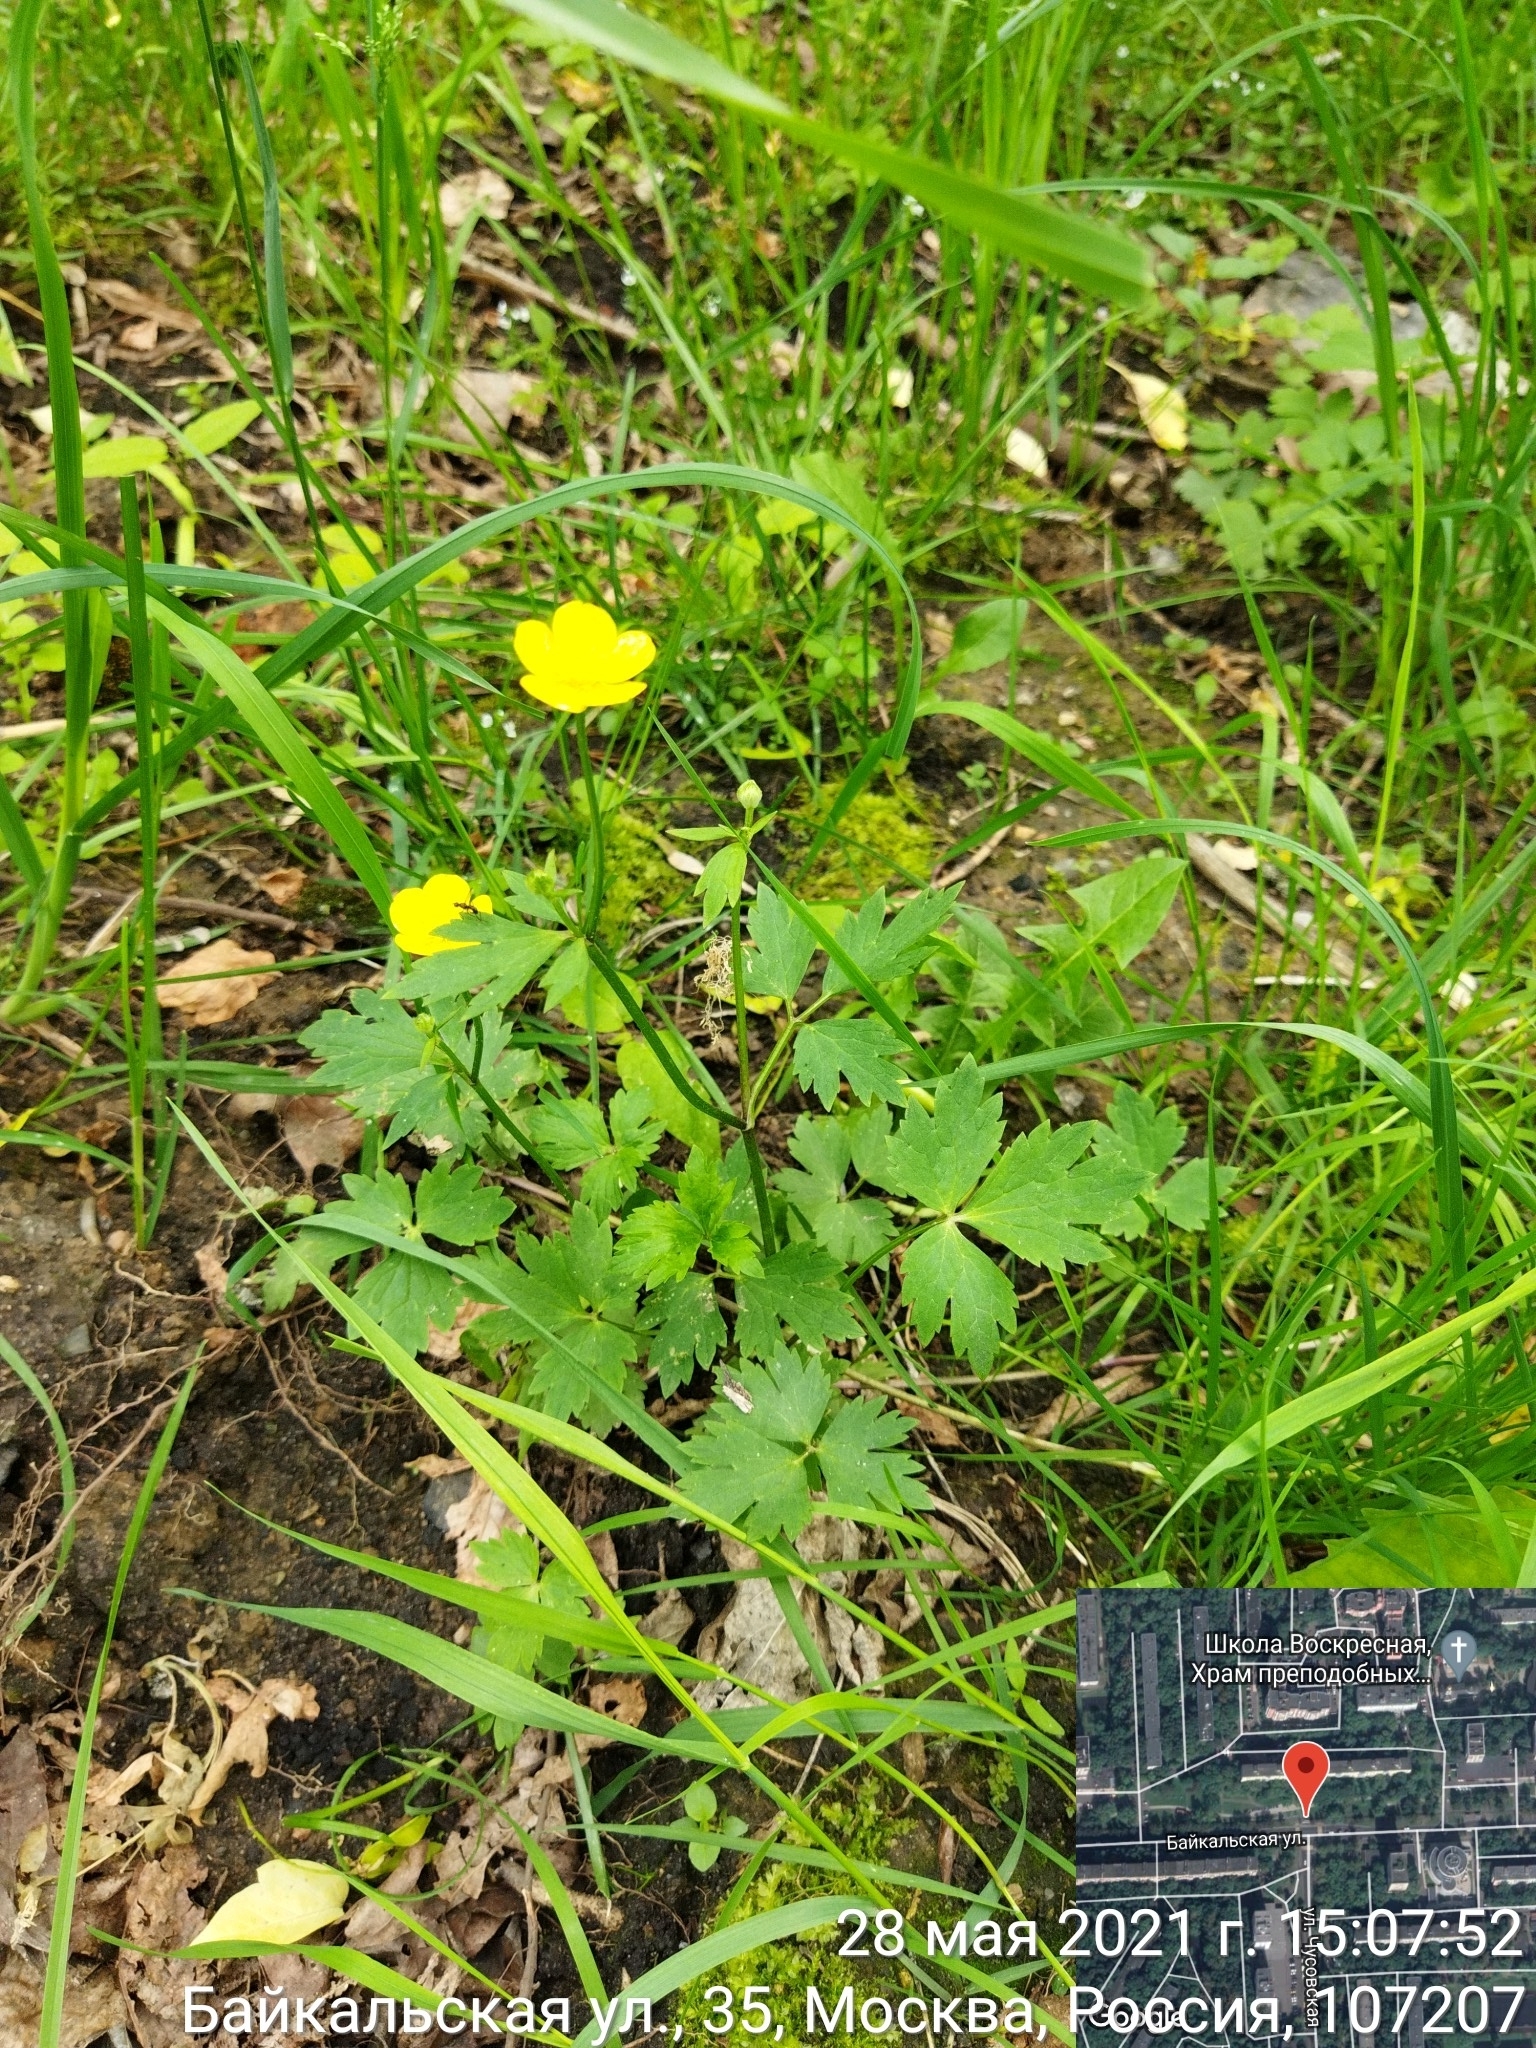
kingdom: Plantae
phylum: Tracheophyta
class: Magnoliopsida
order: Ranunculales
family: Ranunculaceae
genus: Ranunculus
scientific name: Ranunculus repens
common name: Creeping buttercup
